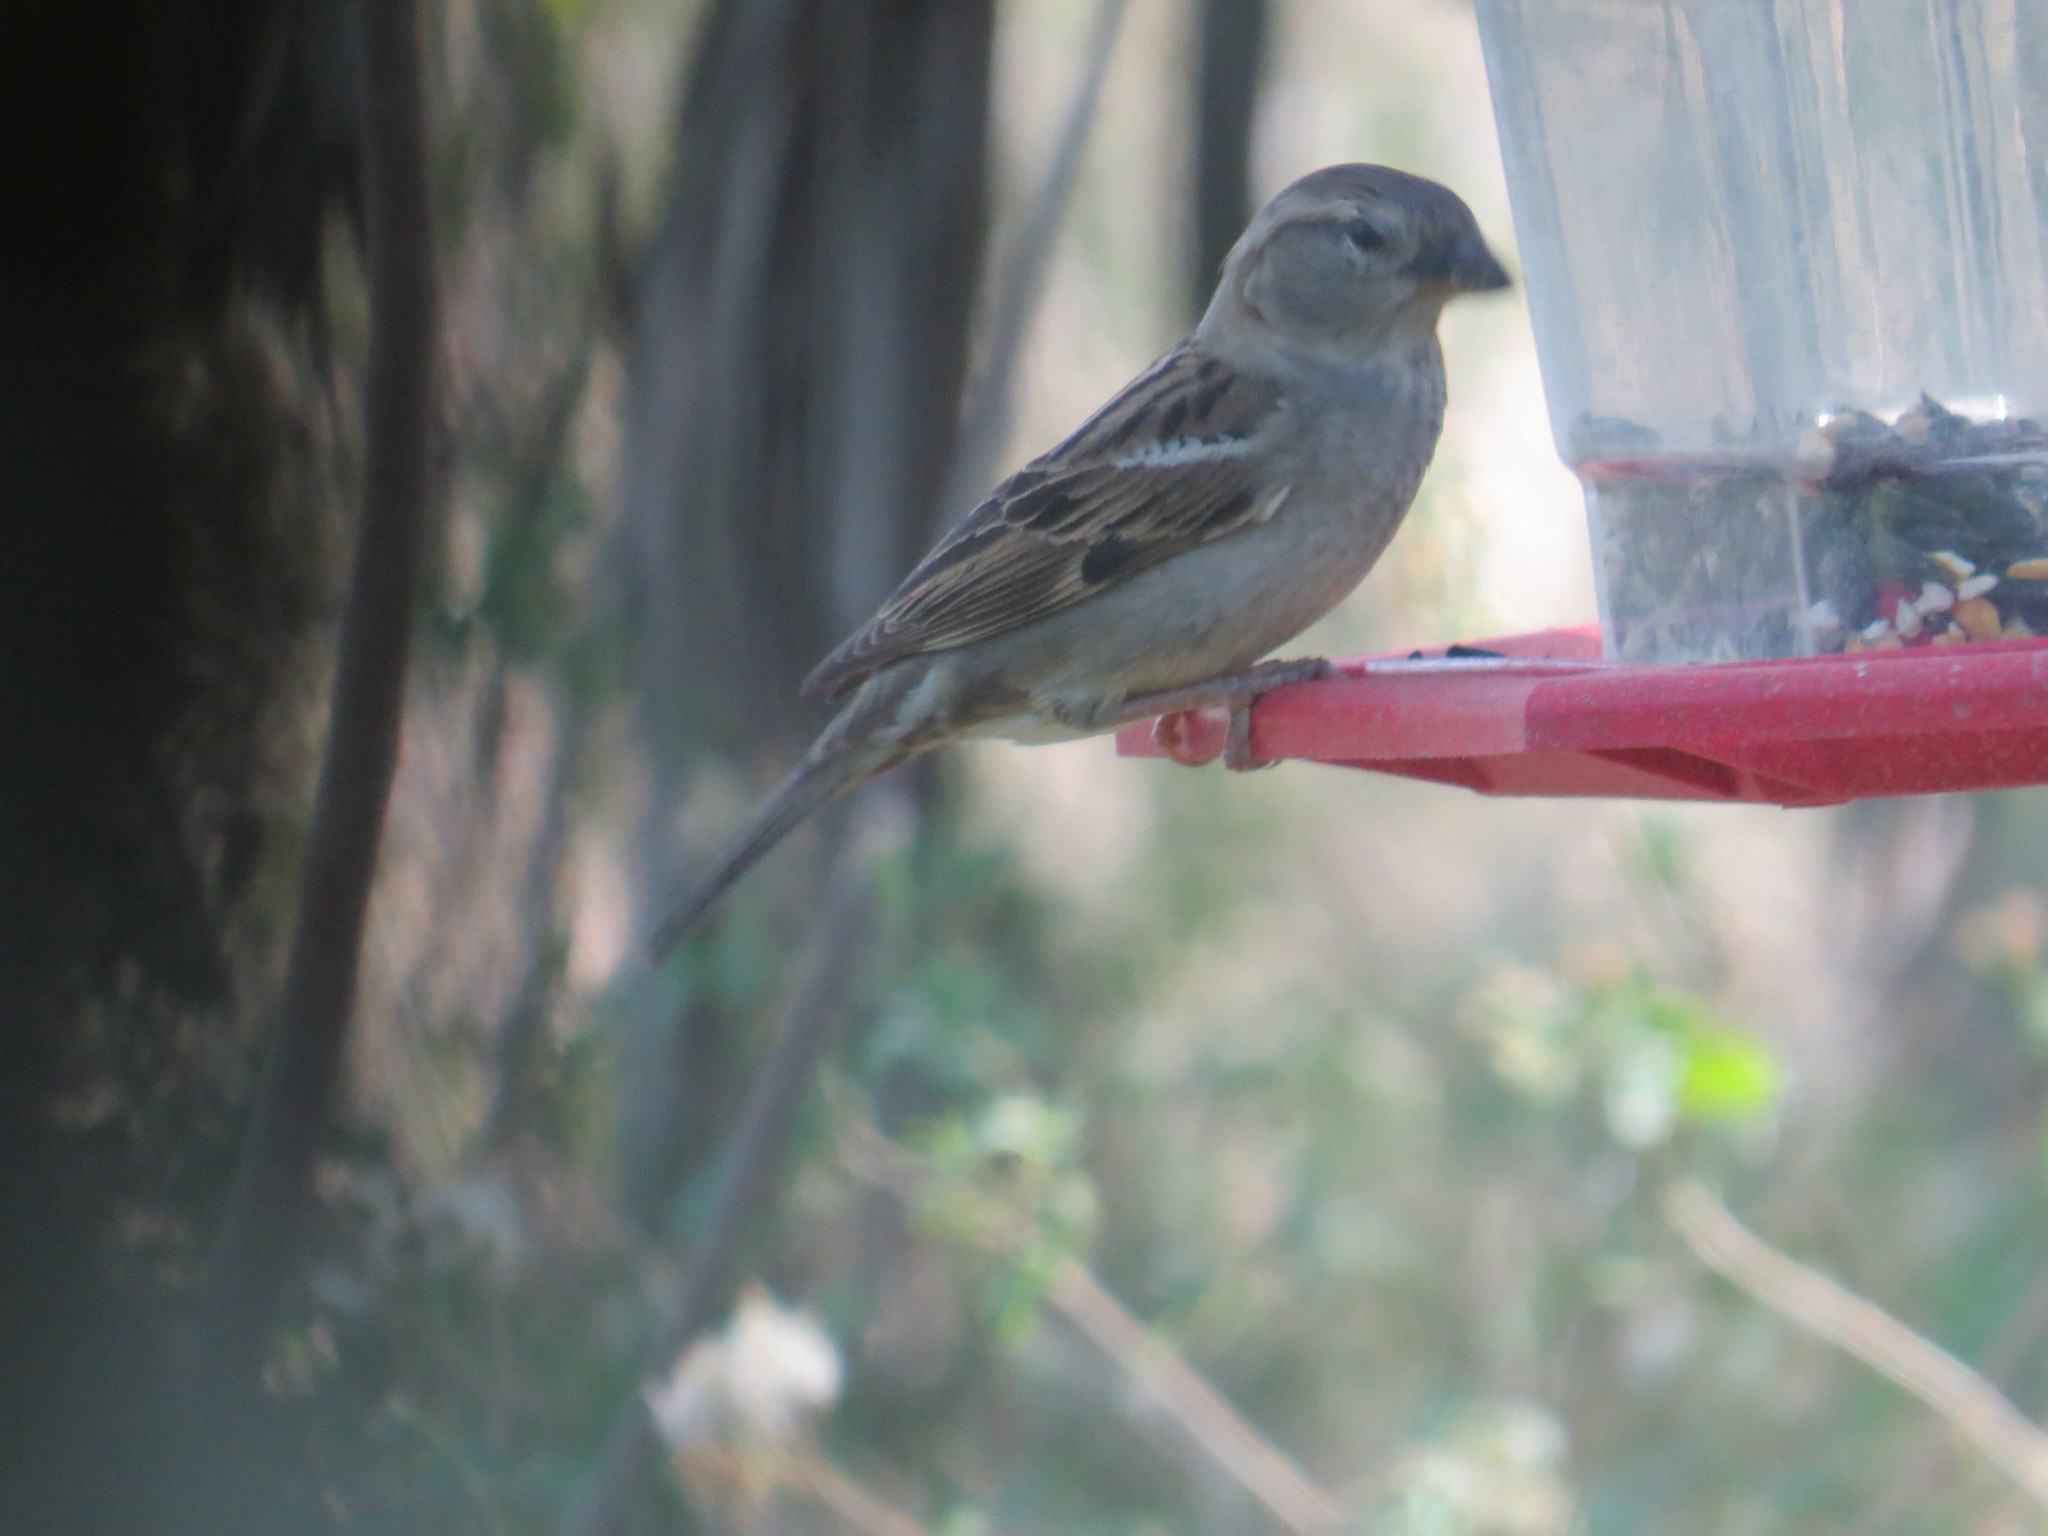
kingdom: Animalia
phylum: Chordata
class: Aves
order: Passeriformes
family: Passeridae
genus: Passer
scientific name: Passer domesticus
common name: House sparrow
